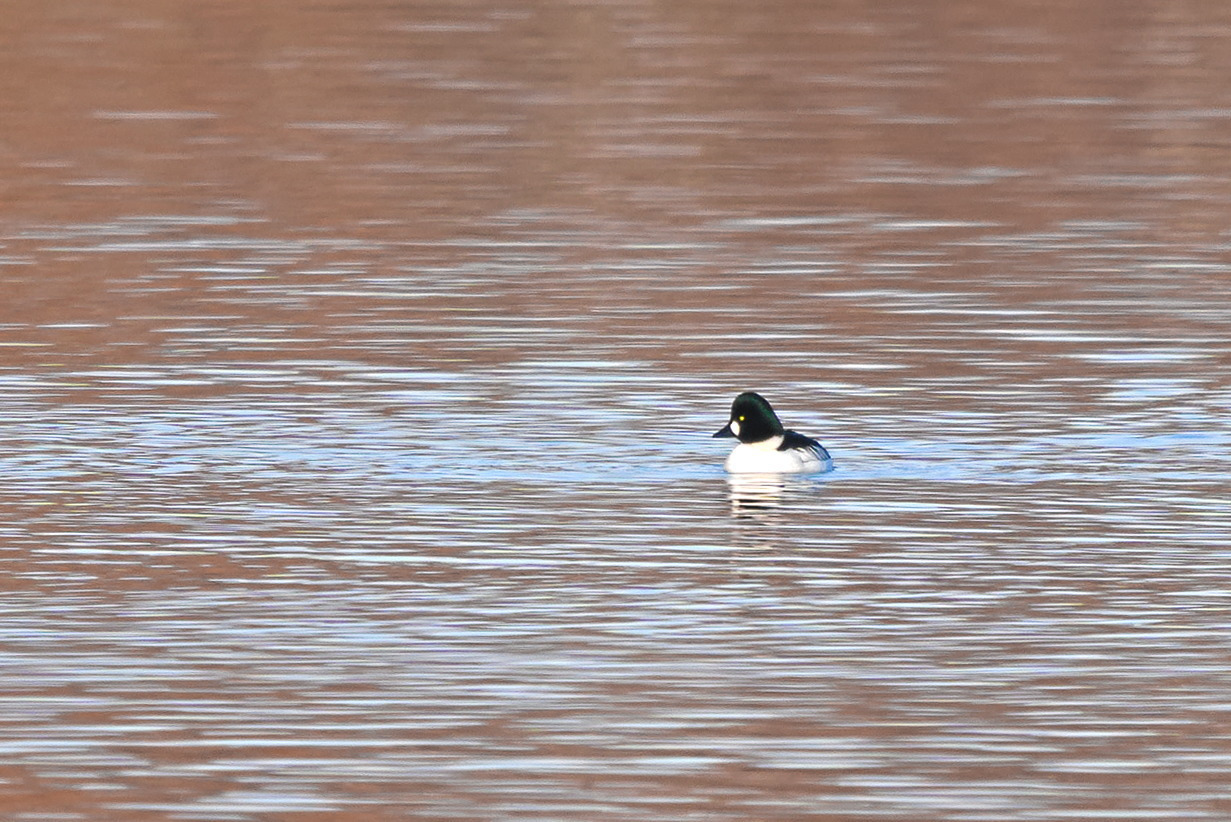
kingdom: Animalia
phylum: Chordata
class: Aves
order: Anseriformes
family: Anatidae
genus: Bucephala
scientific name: Bucephala clangula
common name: Common goldeneye
